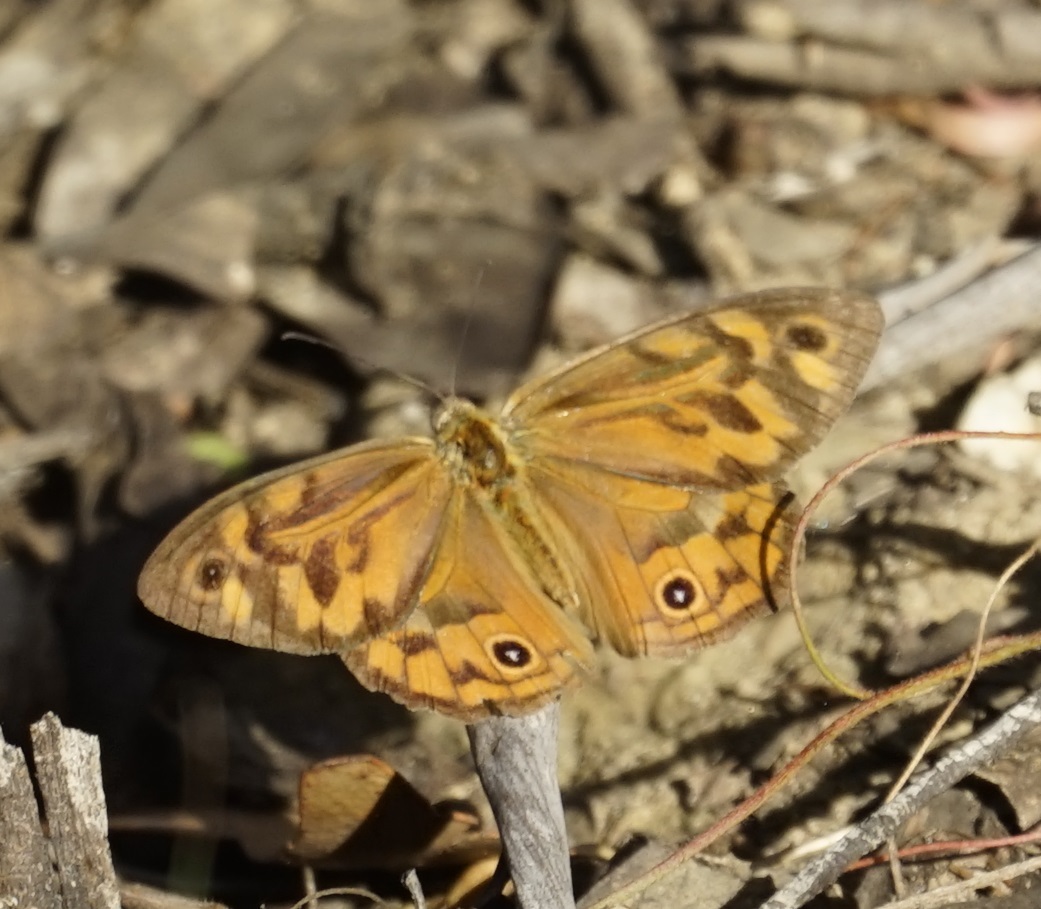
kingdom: Animalia
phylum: Arthropoda
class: Insecta
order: Lepidoptera
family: Nymphalidae
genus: Heteronympha
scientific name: Heteronympha merope
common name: Common brown
